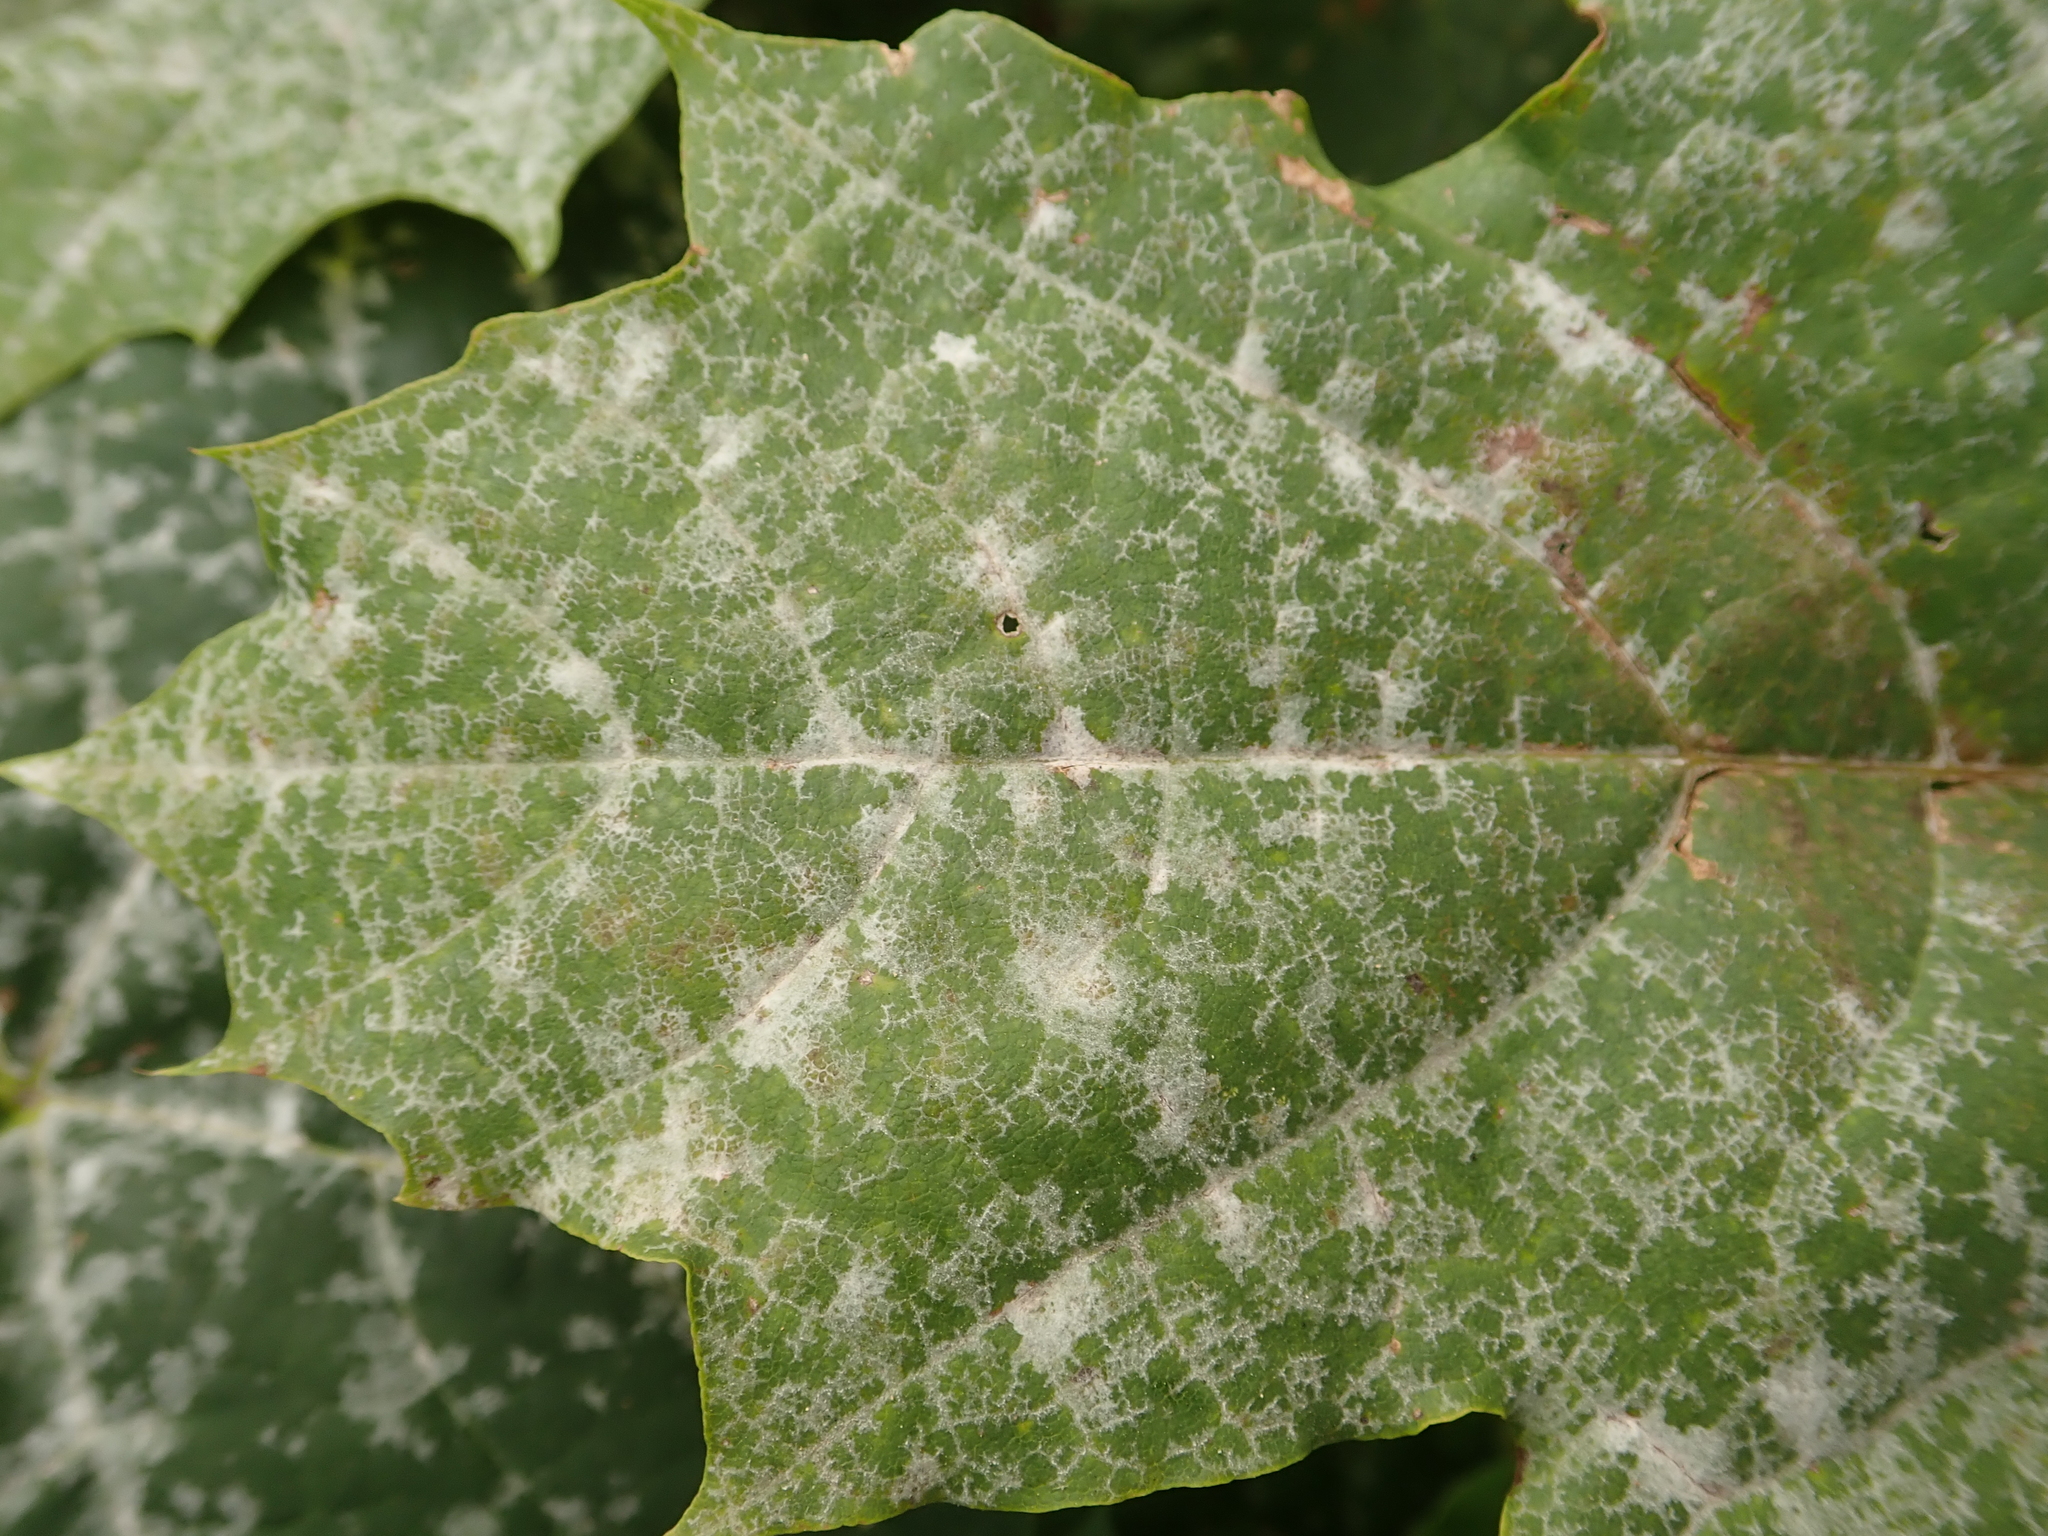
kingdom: Fungi
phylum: Ascomycota
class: Leotiomycetes
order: Helotiales
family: Erysiphaceae
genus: Sawadaea
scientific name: Sawadaea tulasnei
